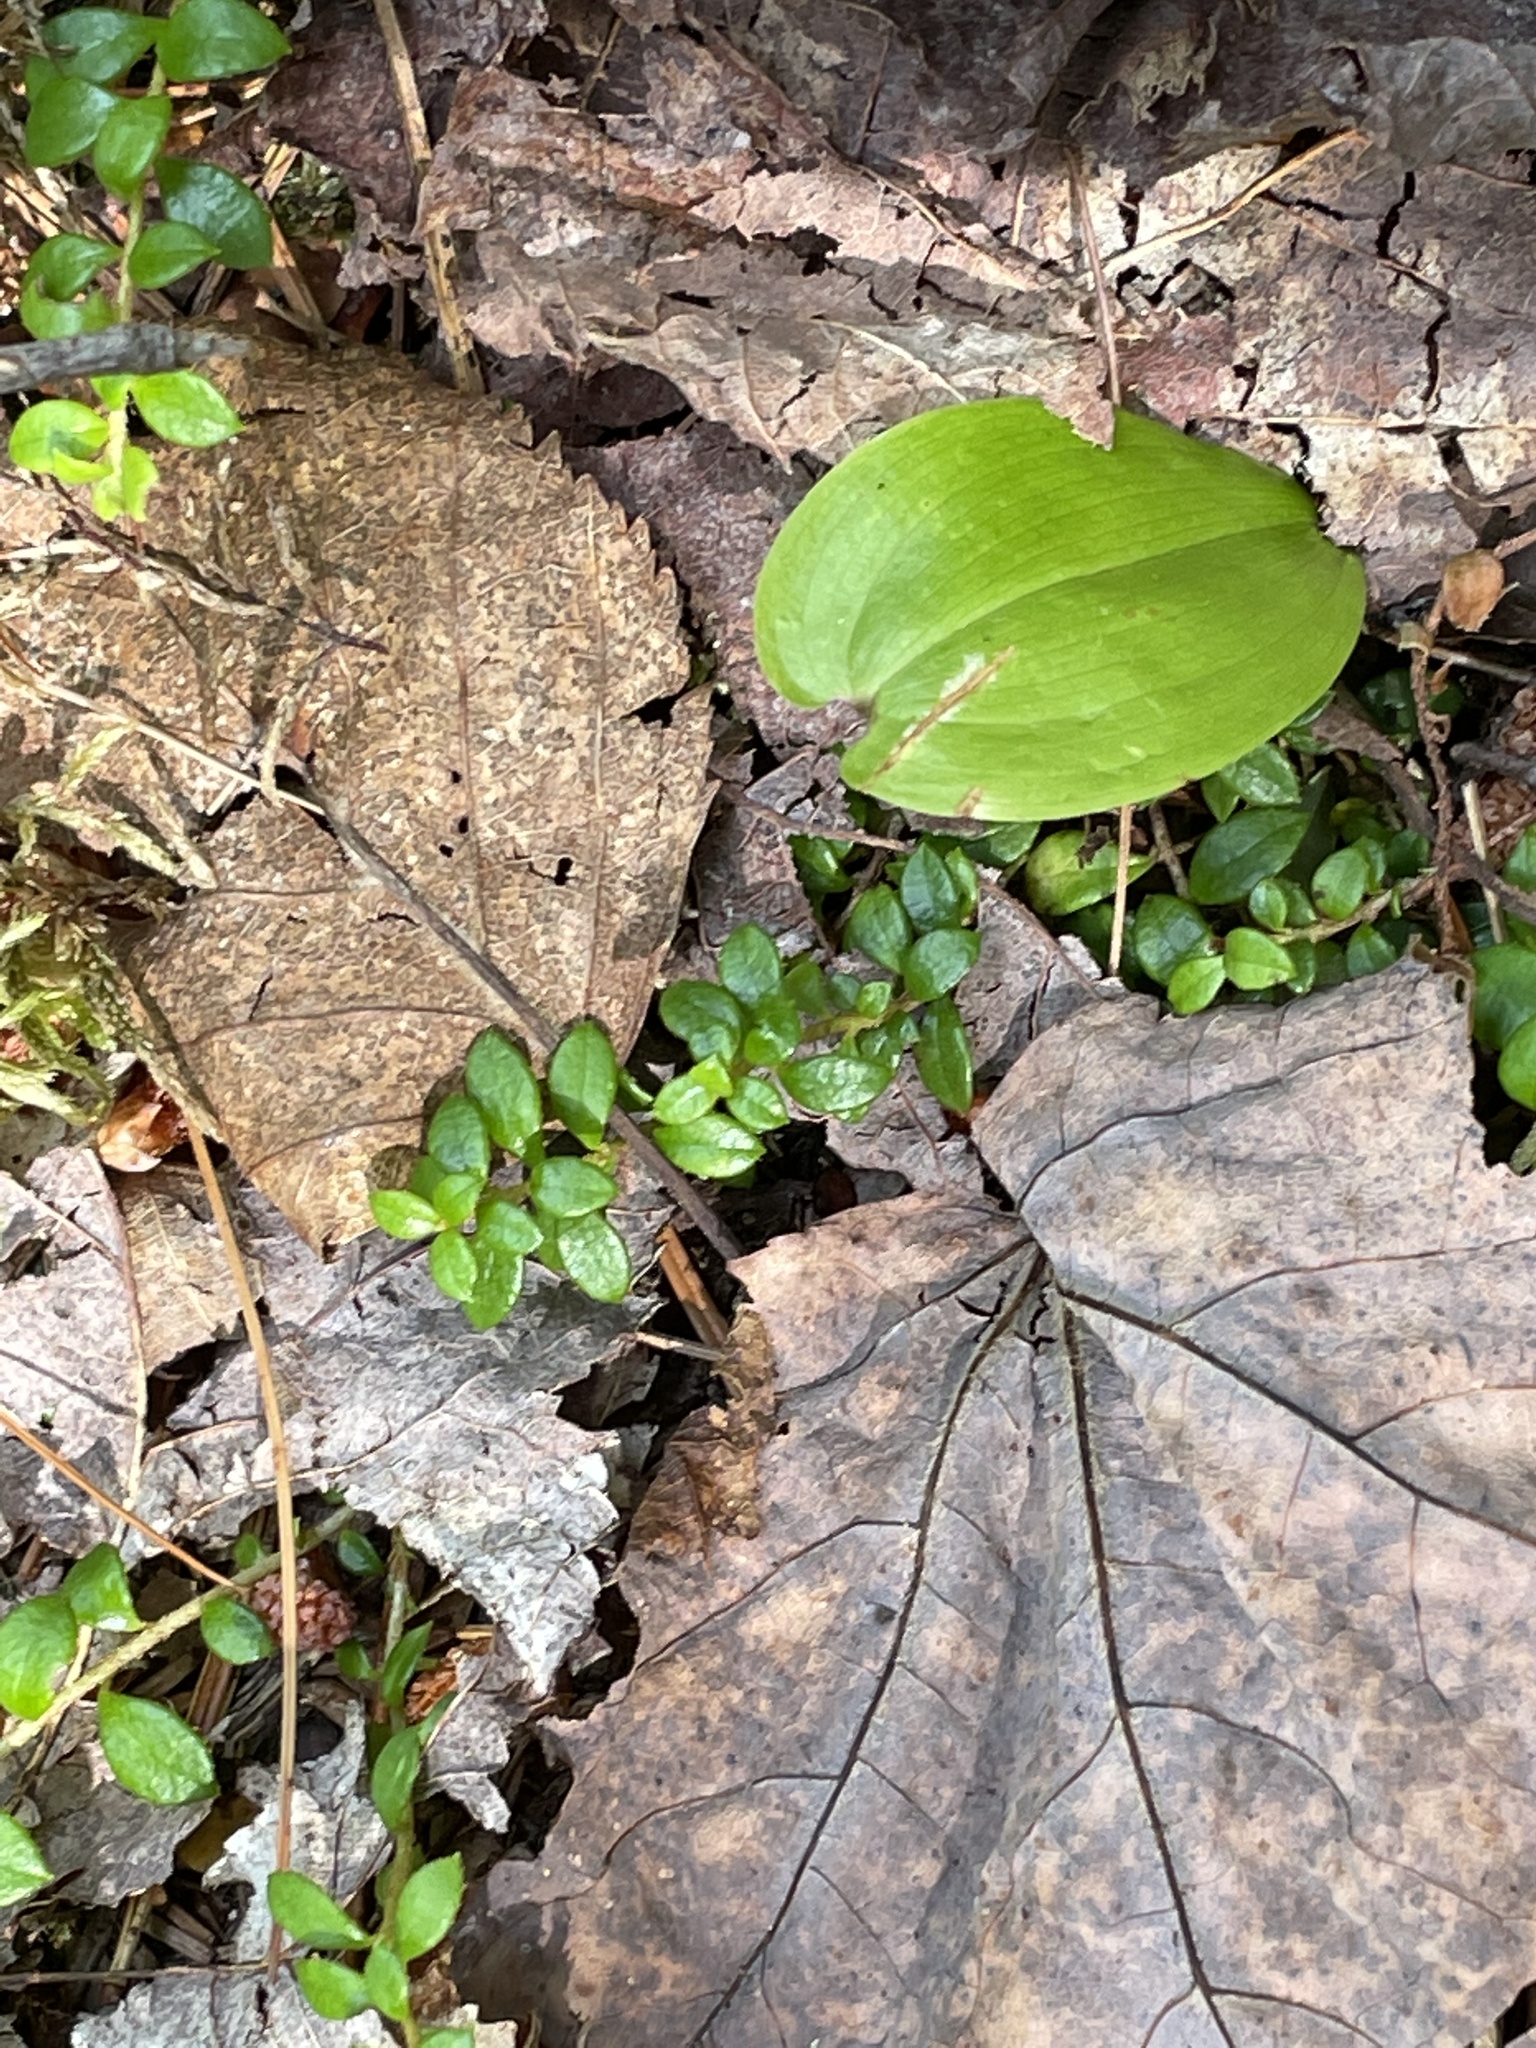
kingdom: Plantae
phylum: Tracheophyta
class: Magnoliopsida
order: Ericales
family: Ericaceae
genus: Gaultheria
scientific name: Gaultheria hispidula
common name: Cancer wintergreen
